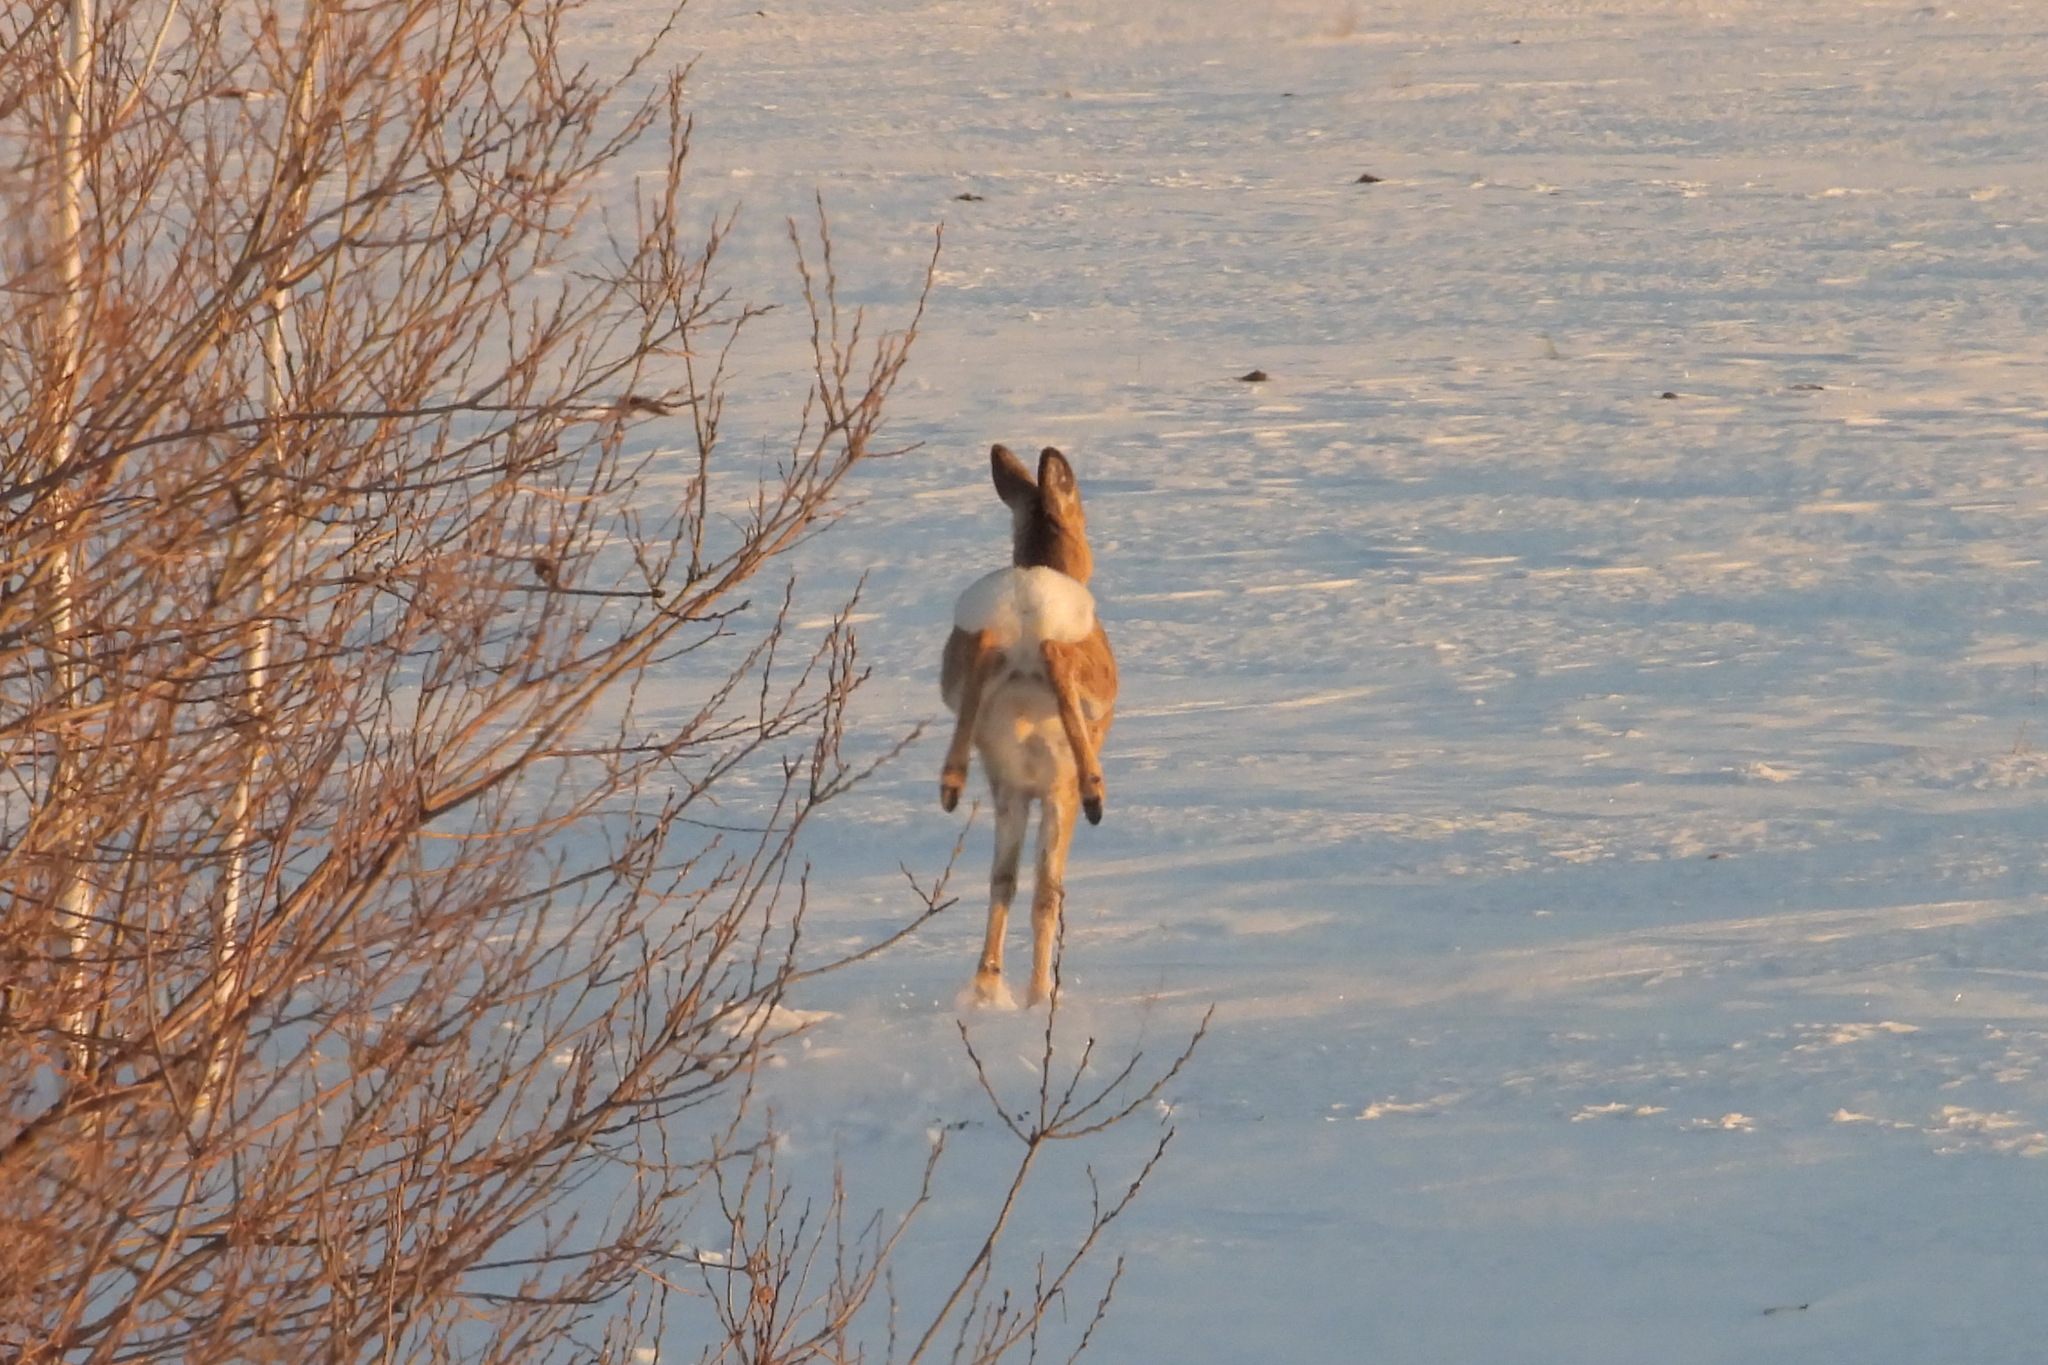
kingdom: Animalia
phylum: Chordata
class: Mammalia
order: Artiodactyla
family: Cervidae
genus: Capreolus
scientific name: Capreolus pygargus
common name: Siberian roe
